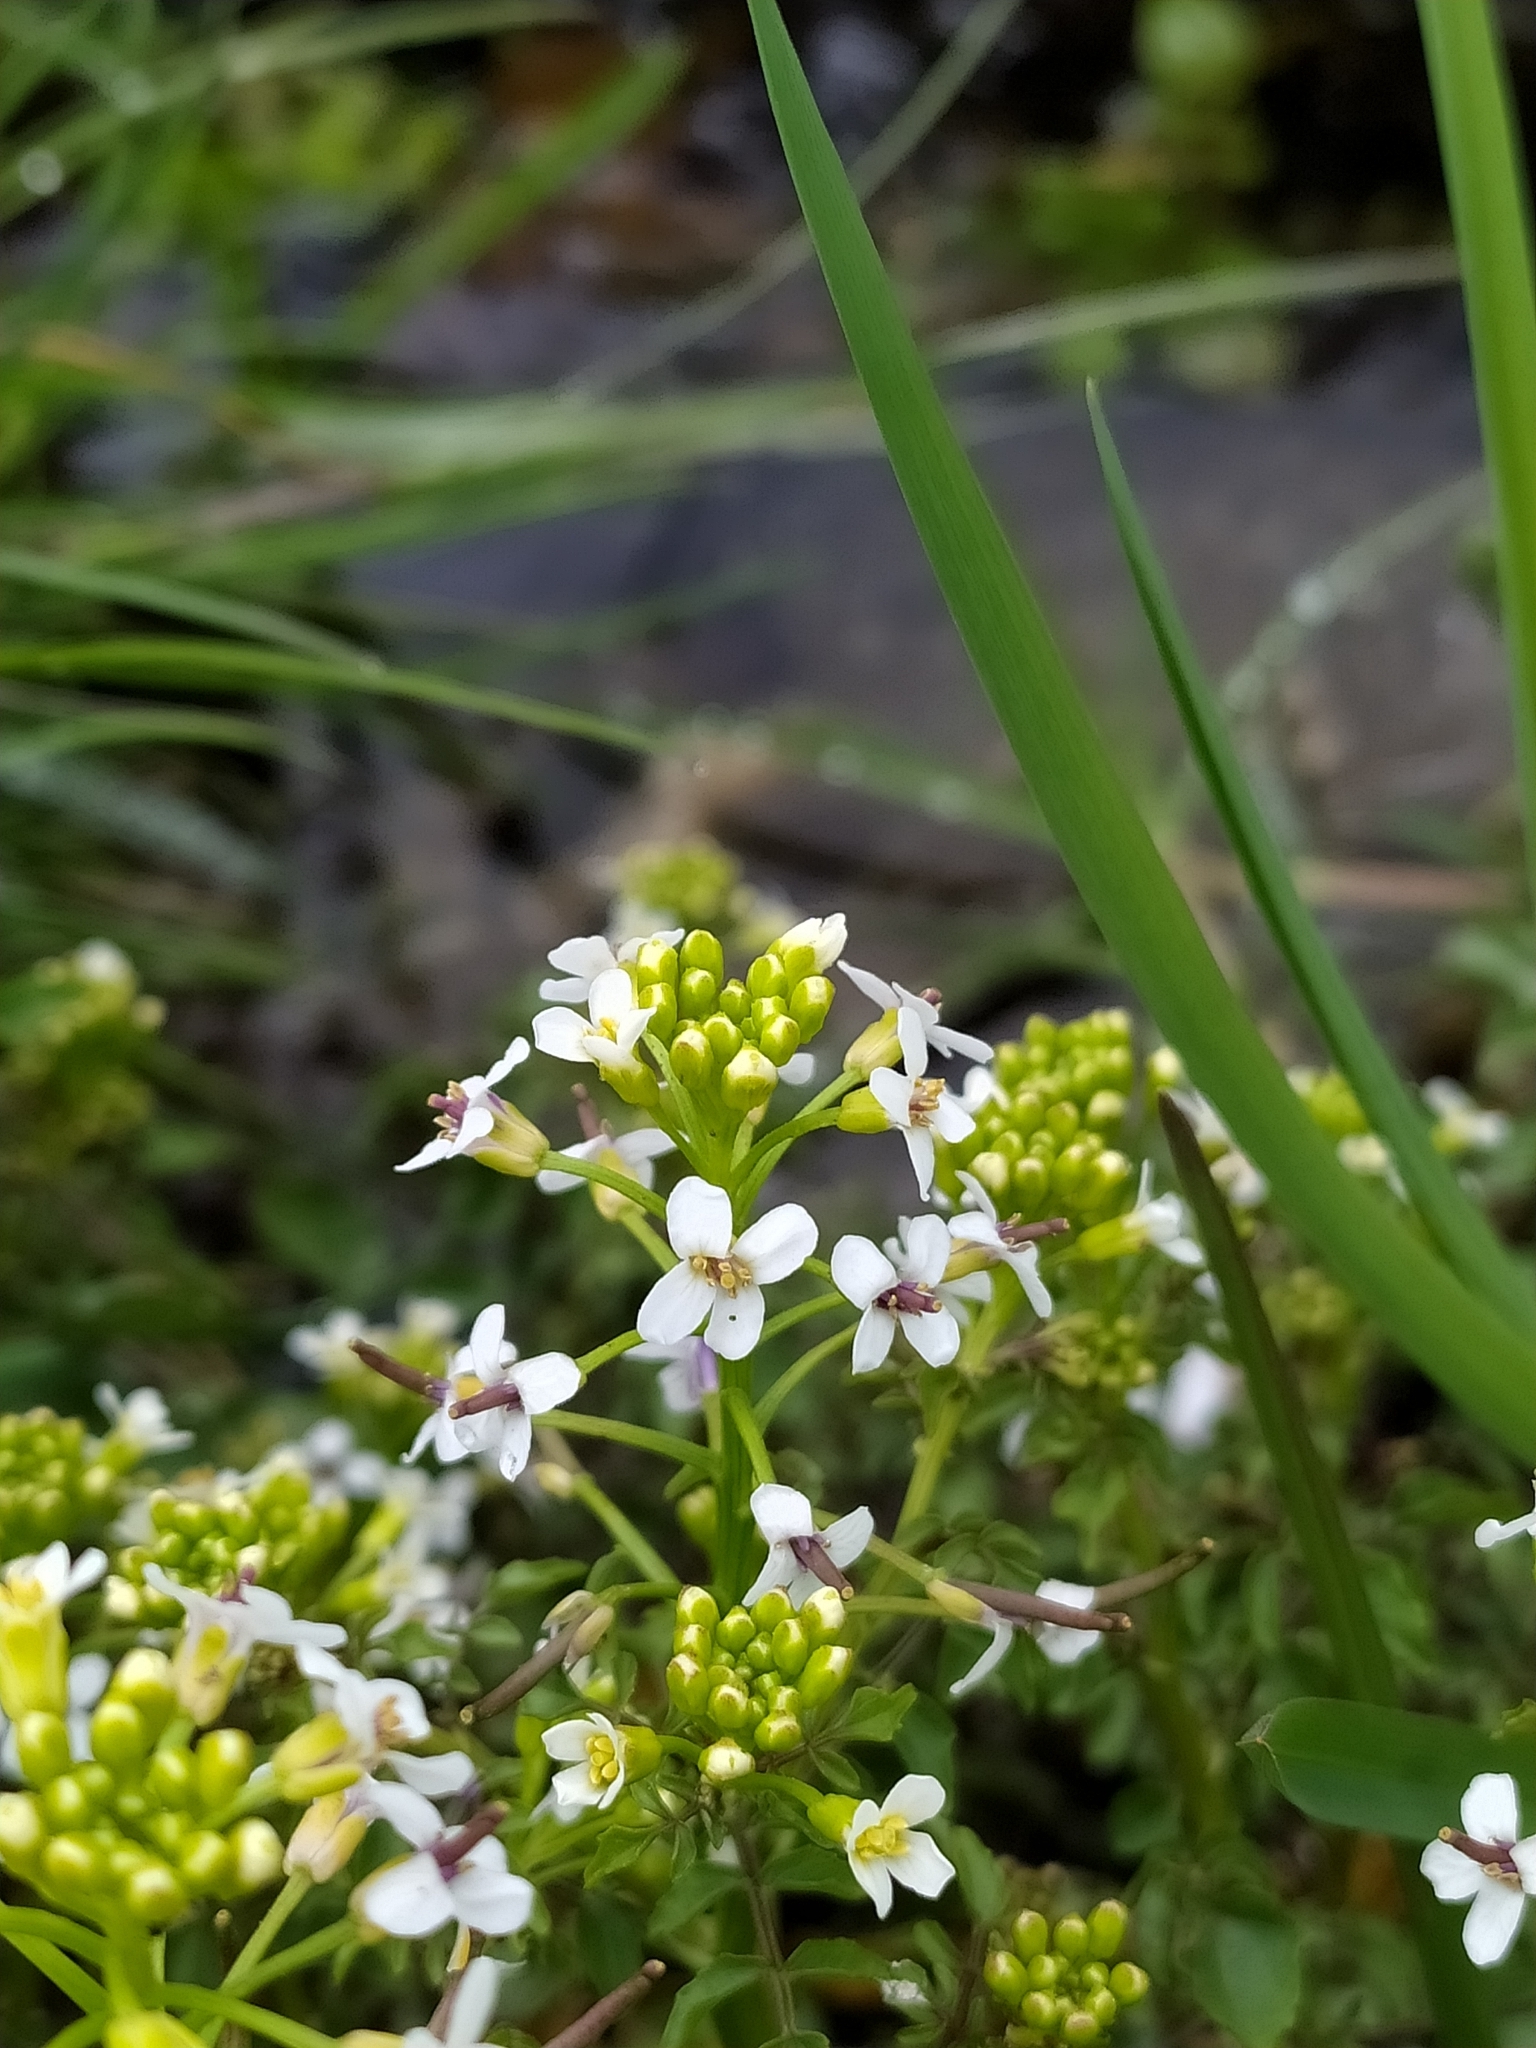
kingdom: Plantae
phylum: Tracheophyta
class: Magnoliopsida
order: Brassicales
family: Brassicaceae
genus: Nasturtium
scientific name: Nasturtium officinale
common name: Watercress
